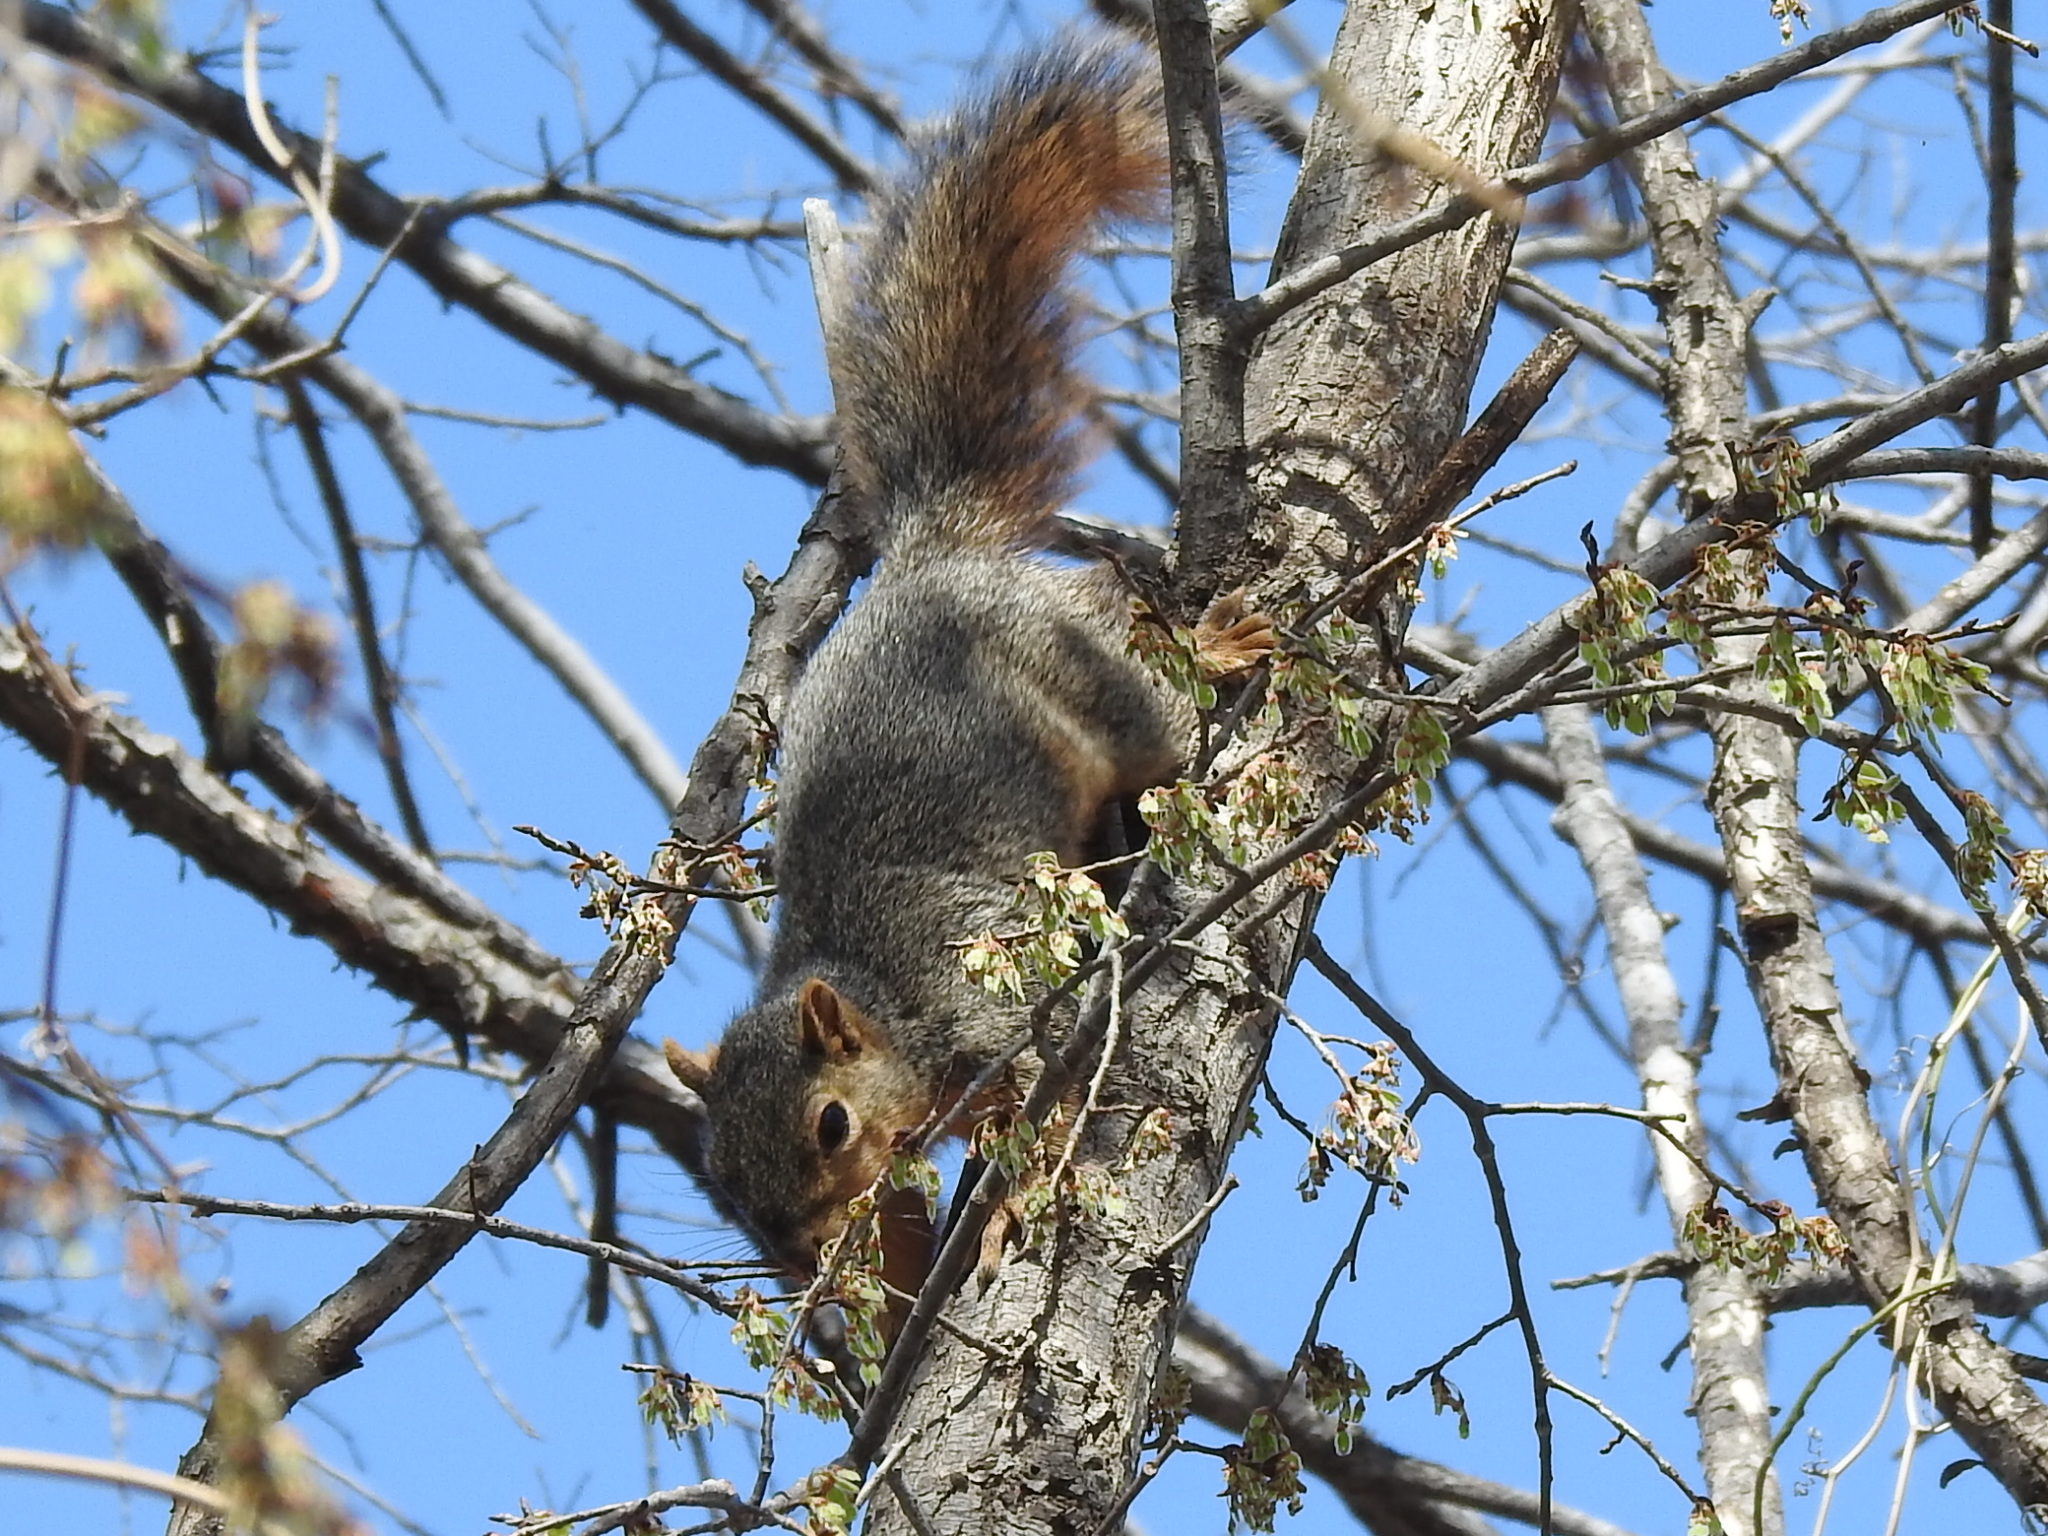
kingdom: Animalia
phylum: Chordata
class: Mammalia
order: Rodentia
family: Sciuridae
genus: Sciurus
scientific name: Sciurus niger
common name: Fox squirrel
